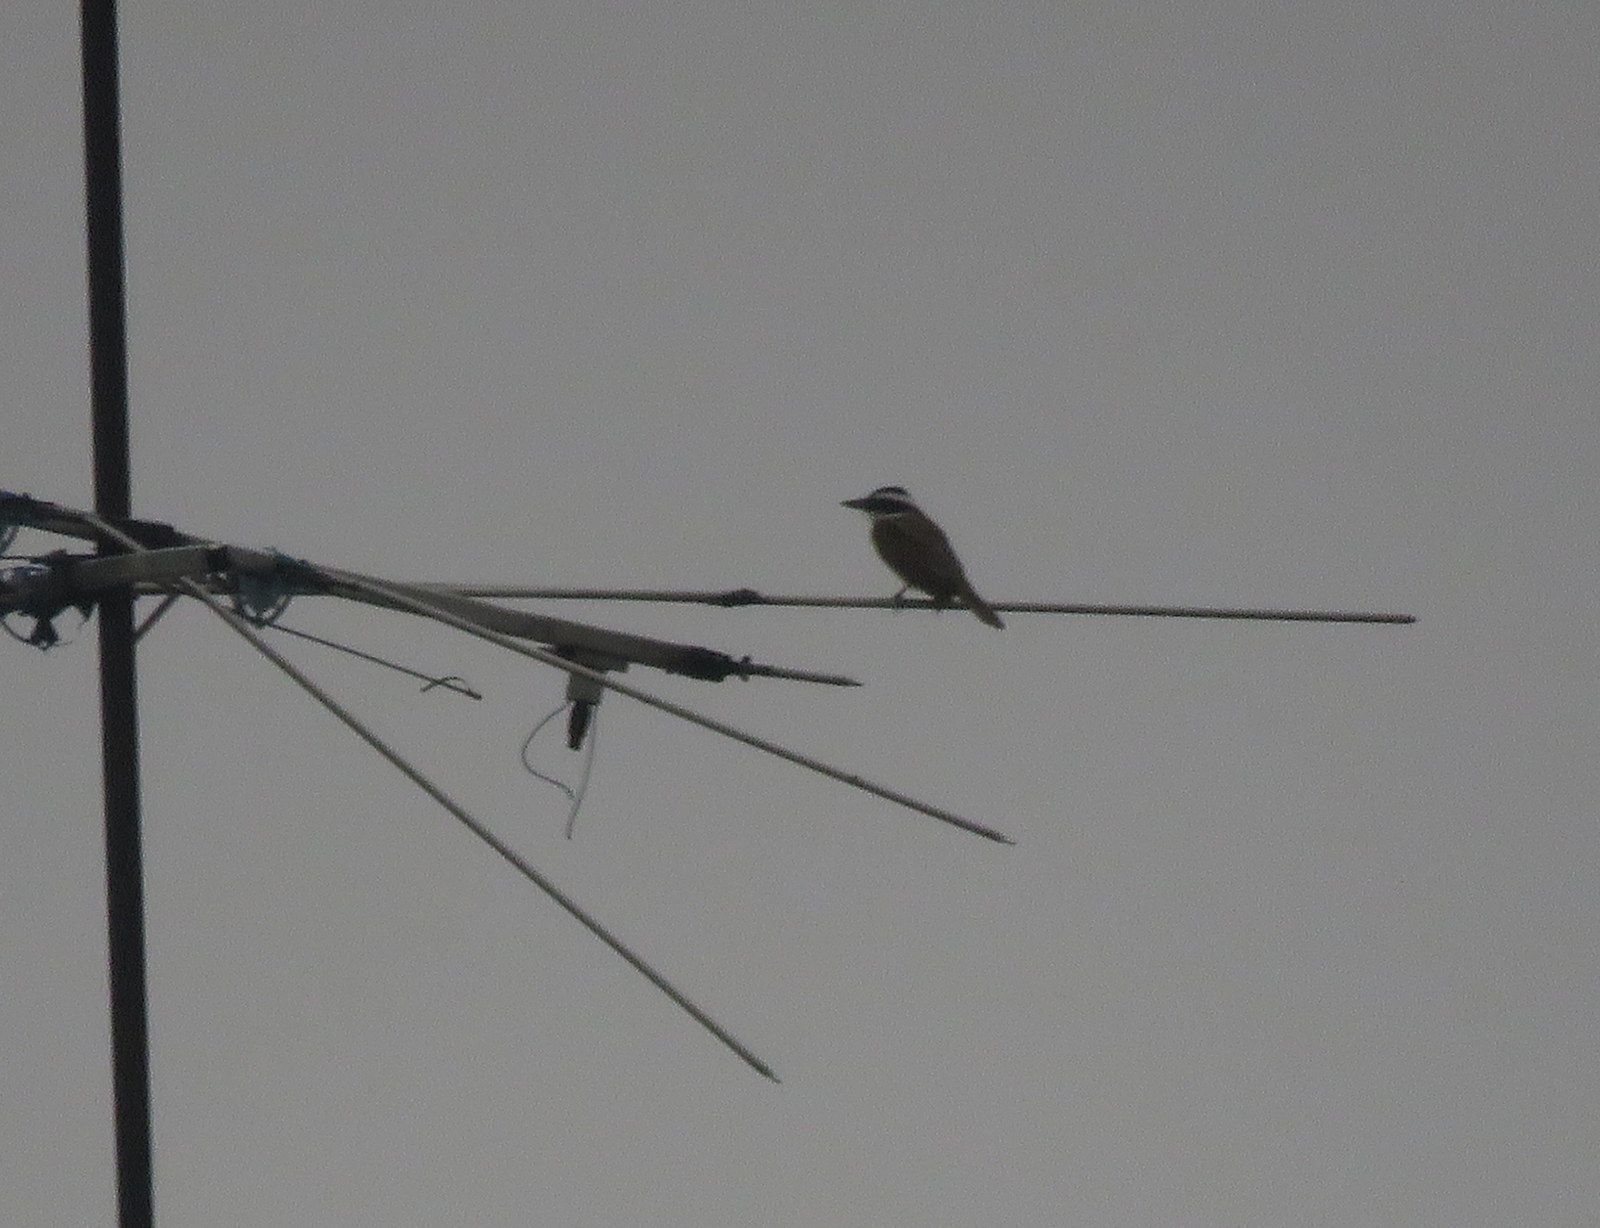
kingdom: Animalia
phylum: Chordata
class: Aves
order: Passeriformes
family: Tyrannidae
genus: Pitangus
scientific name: Pitangus sulphuratus
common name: Great kiskadee
